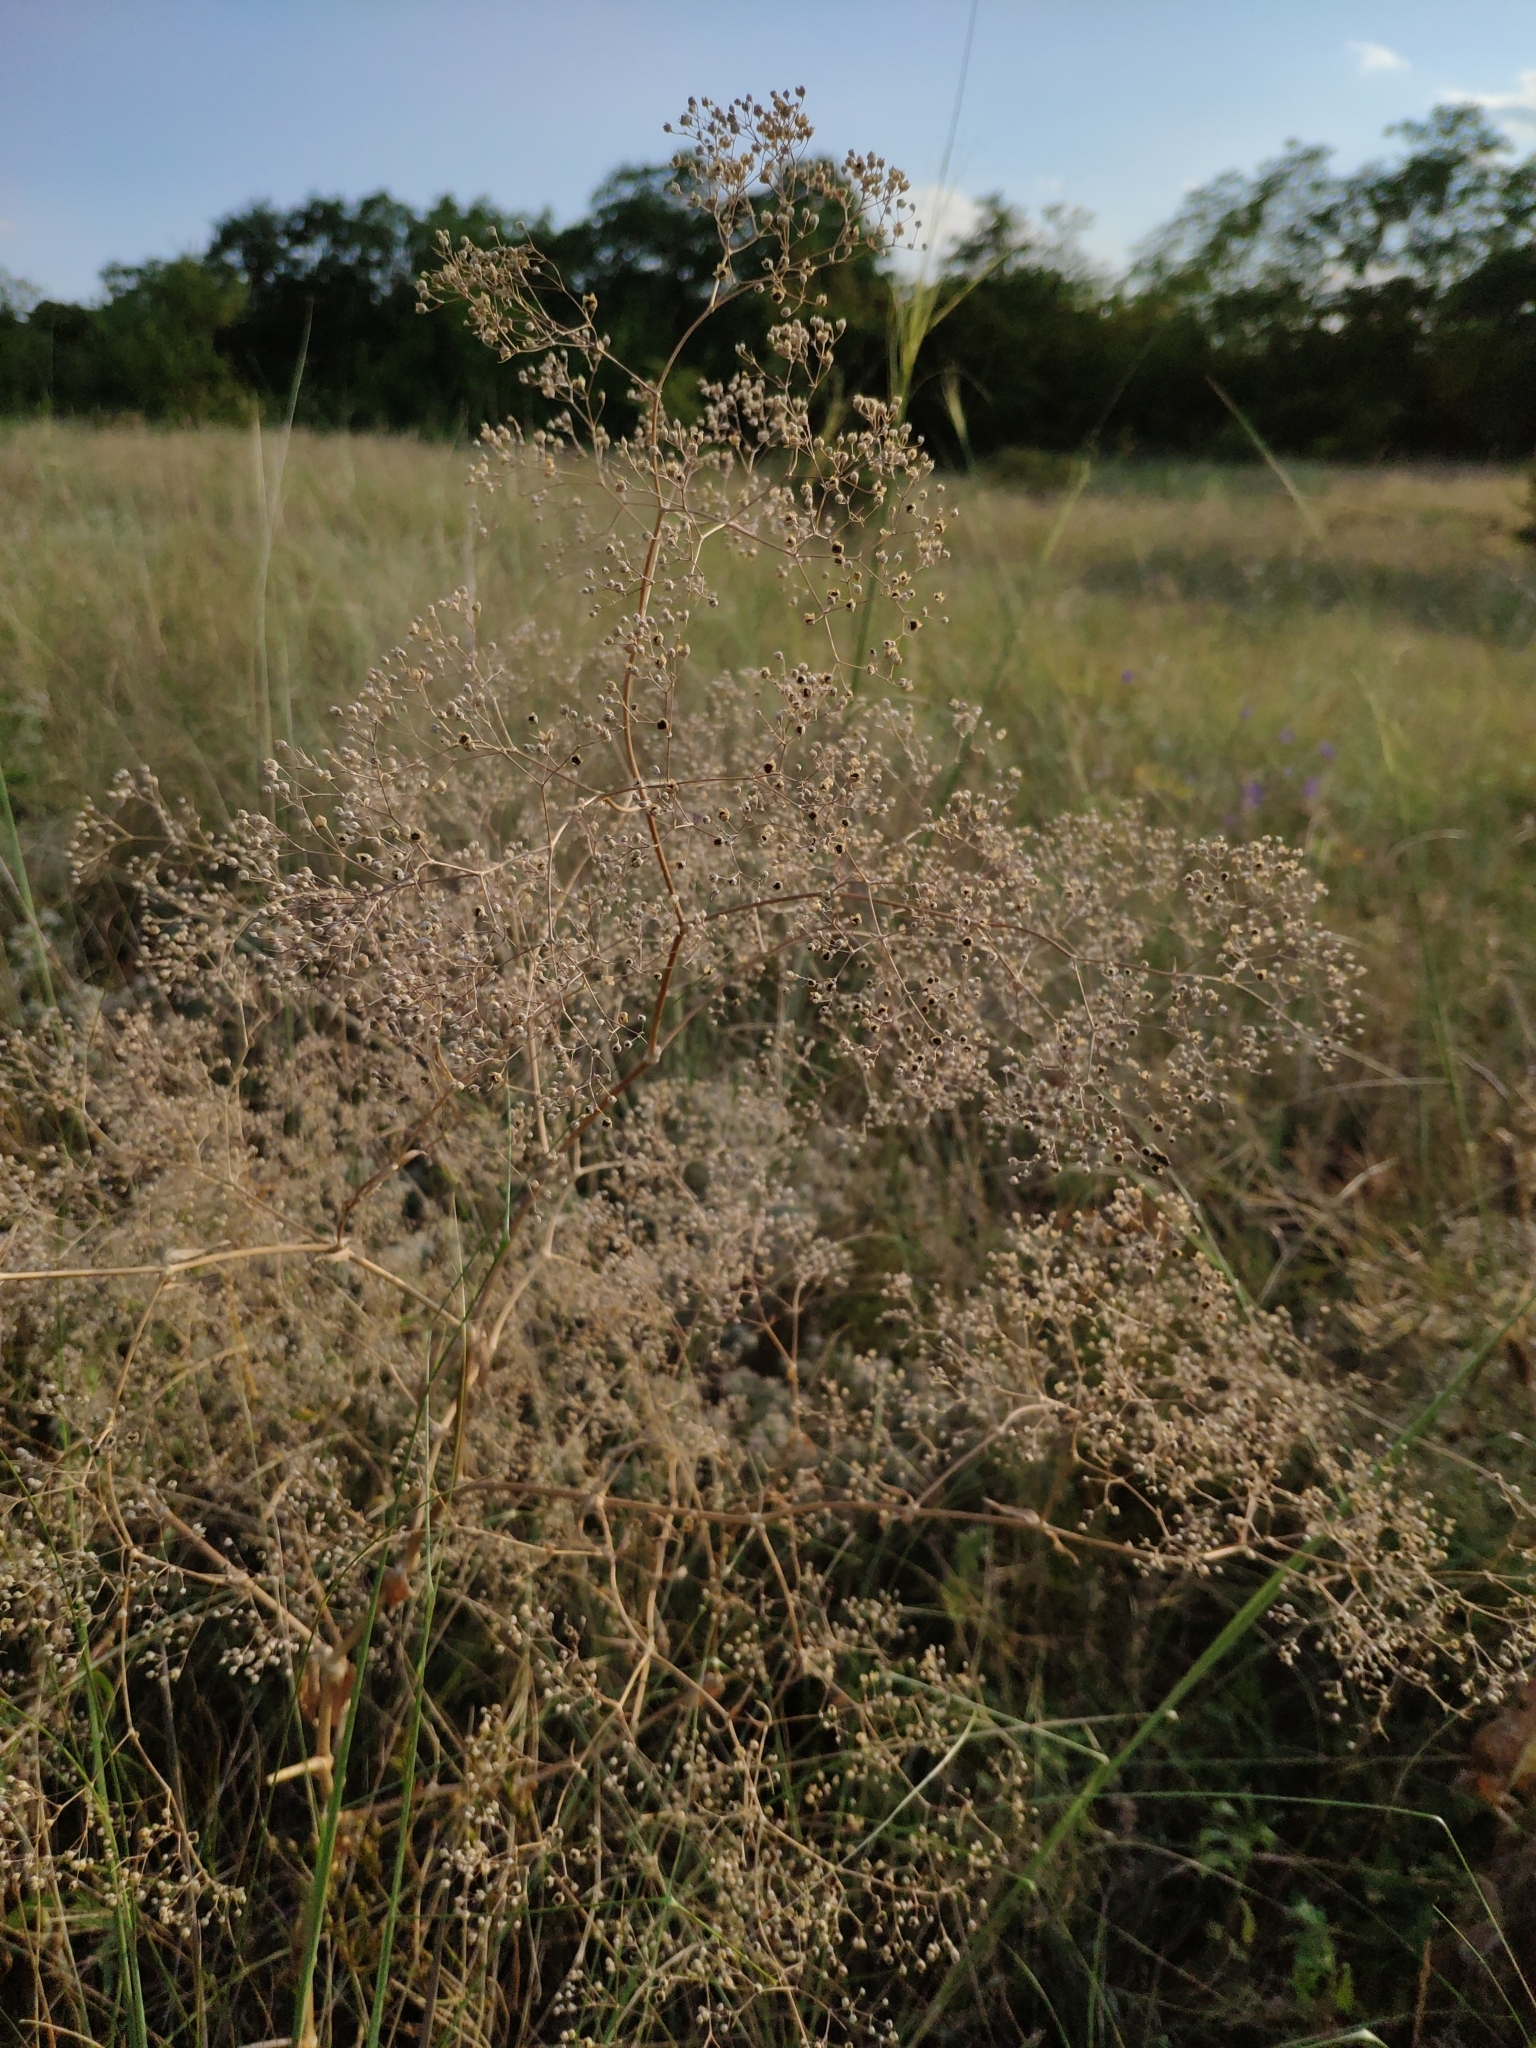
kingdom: Plantae
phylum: Tracheophyta
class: Magnoliopsida
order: Caryophyllales
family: Caryophyllaceae
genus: Gypsophila
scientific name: Gypsophila paniculata
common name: Baby's-breath
